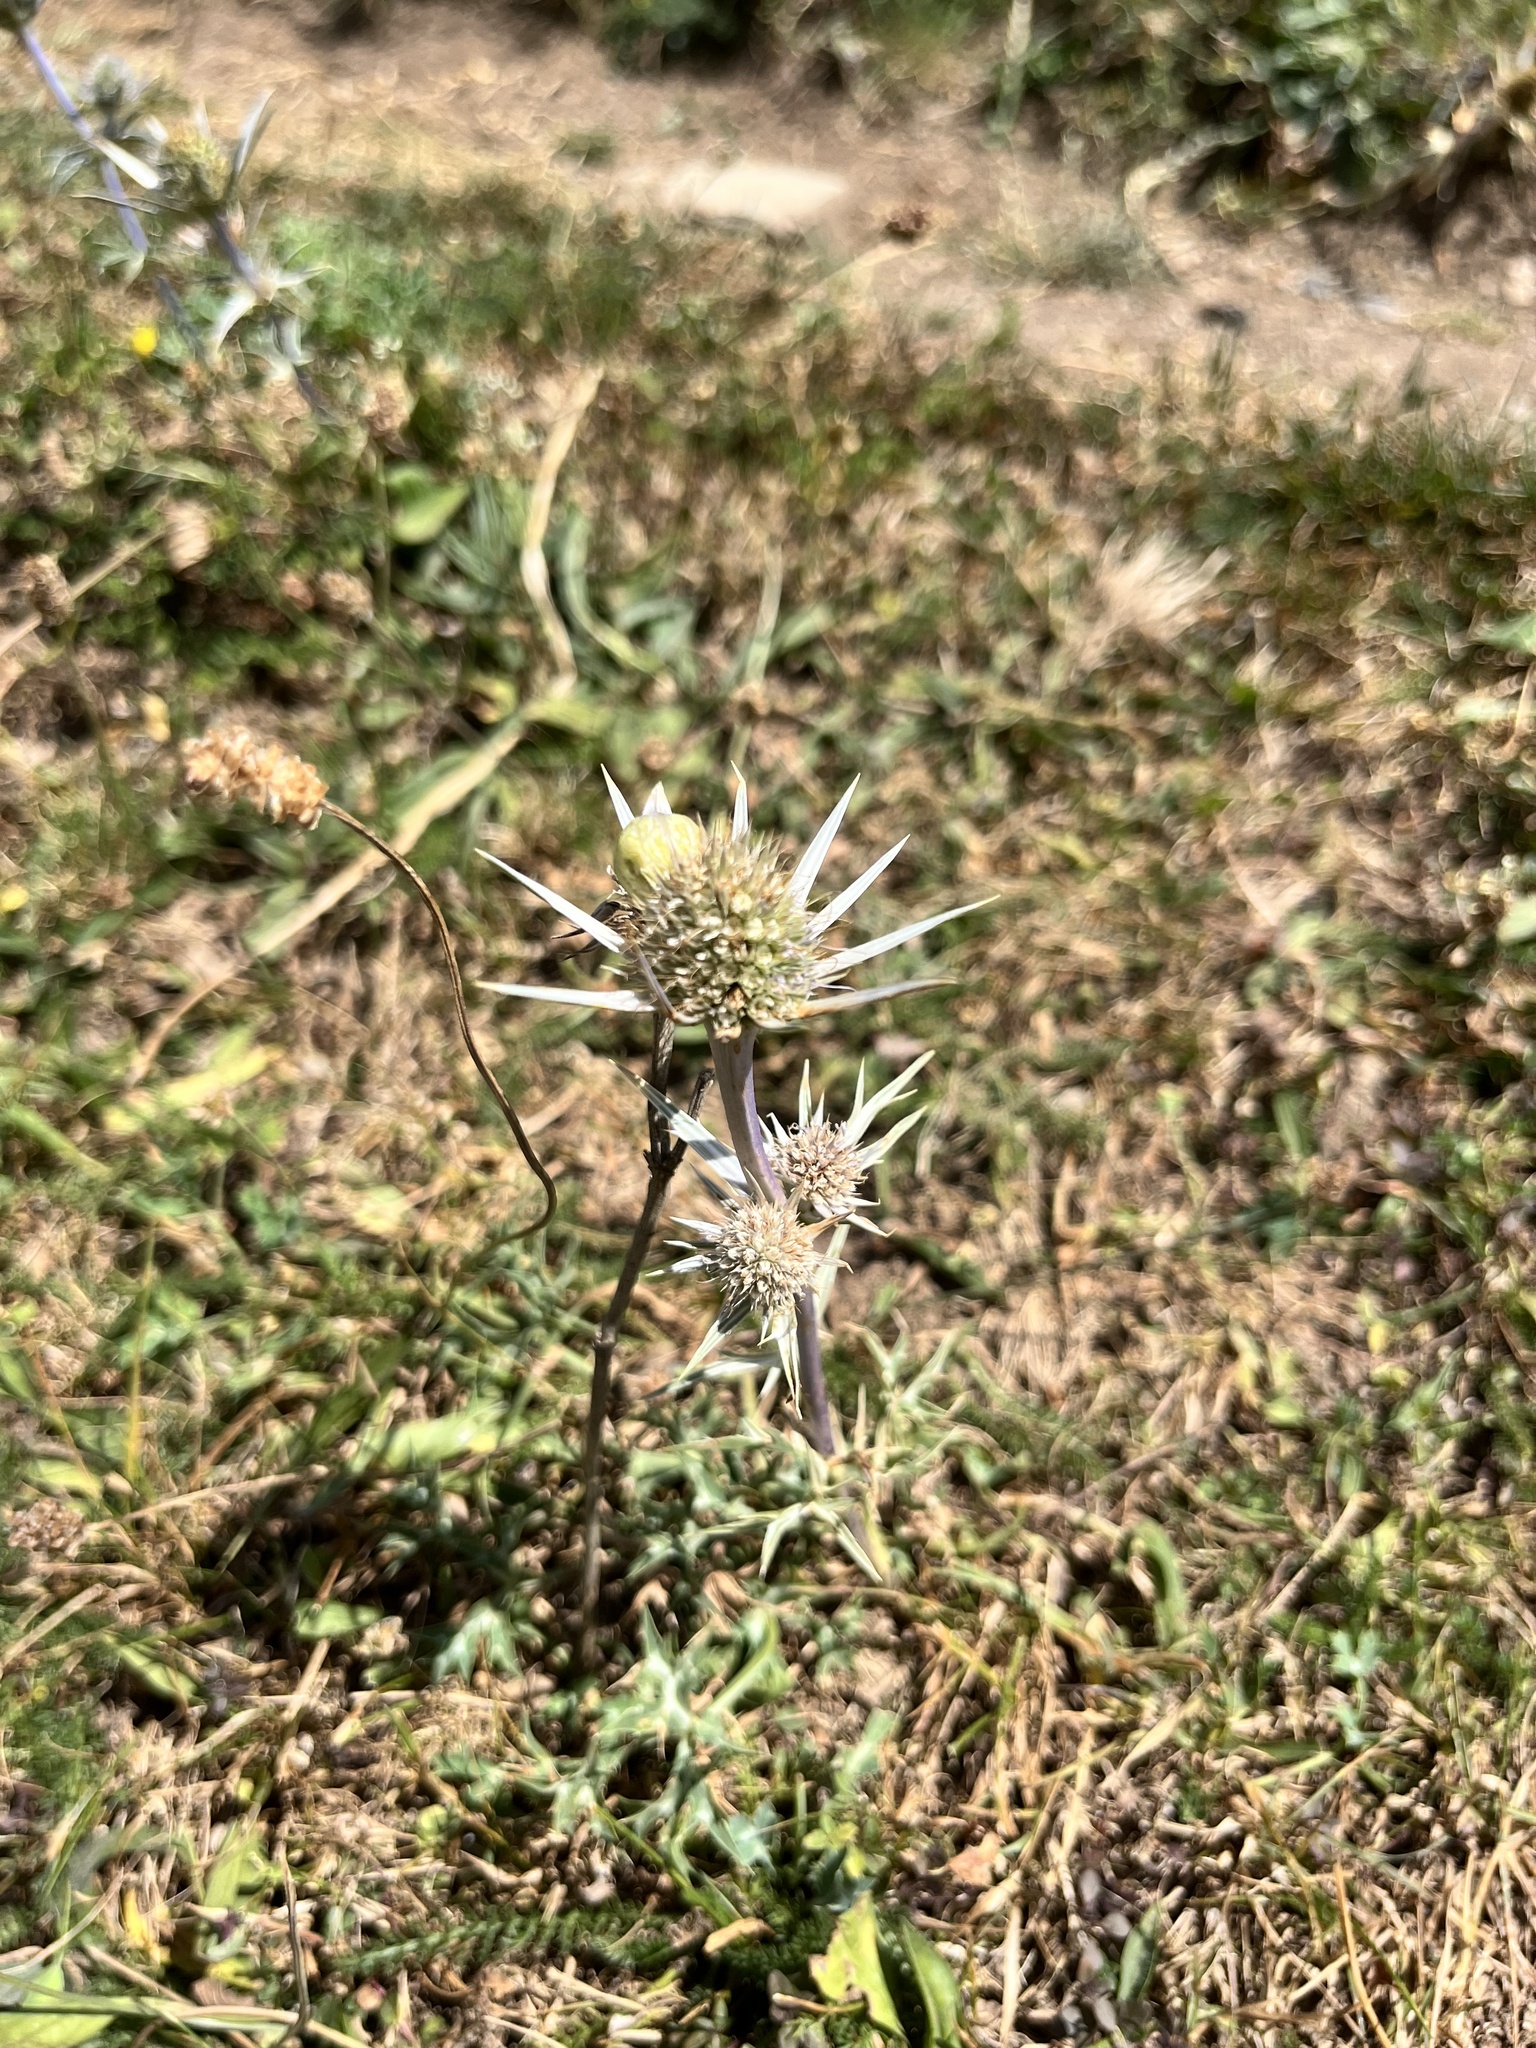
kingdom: Plantae
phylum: Tracheophyta
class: Magnoliopsida
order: Apiales
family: Apiaceae
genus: Eryngium
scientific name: Eryngium bourgatii
